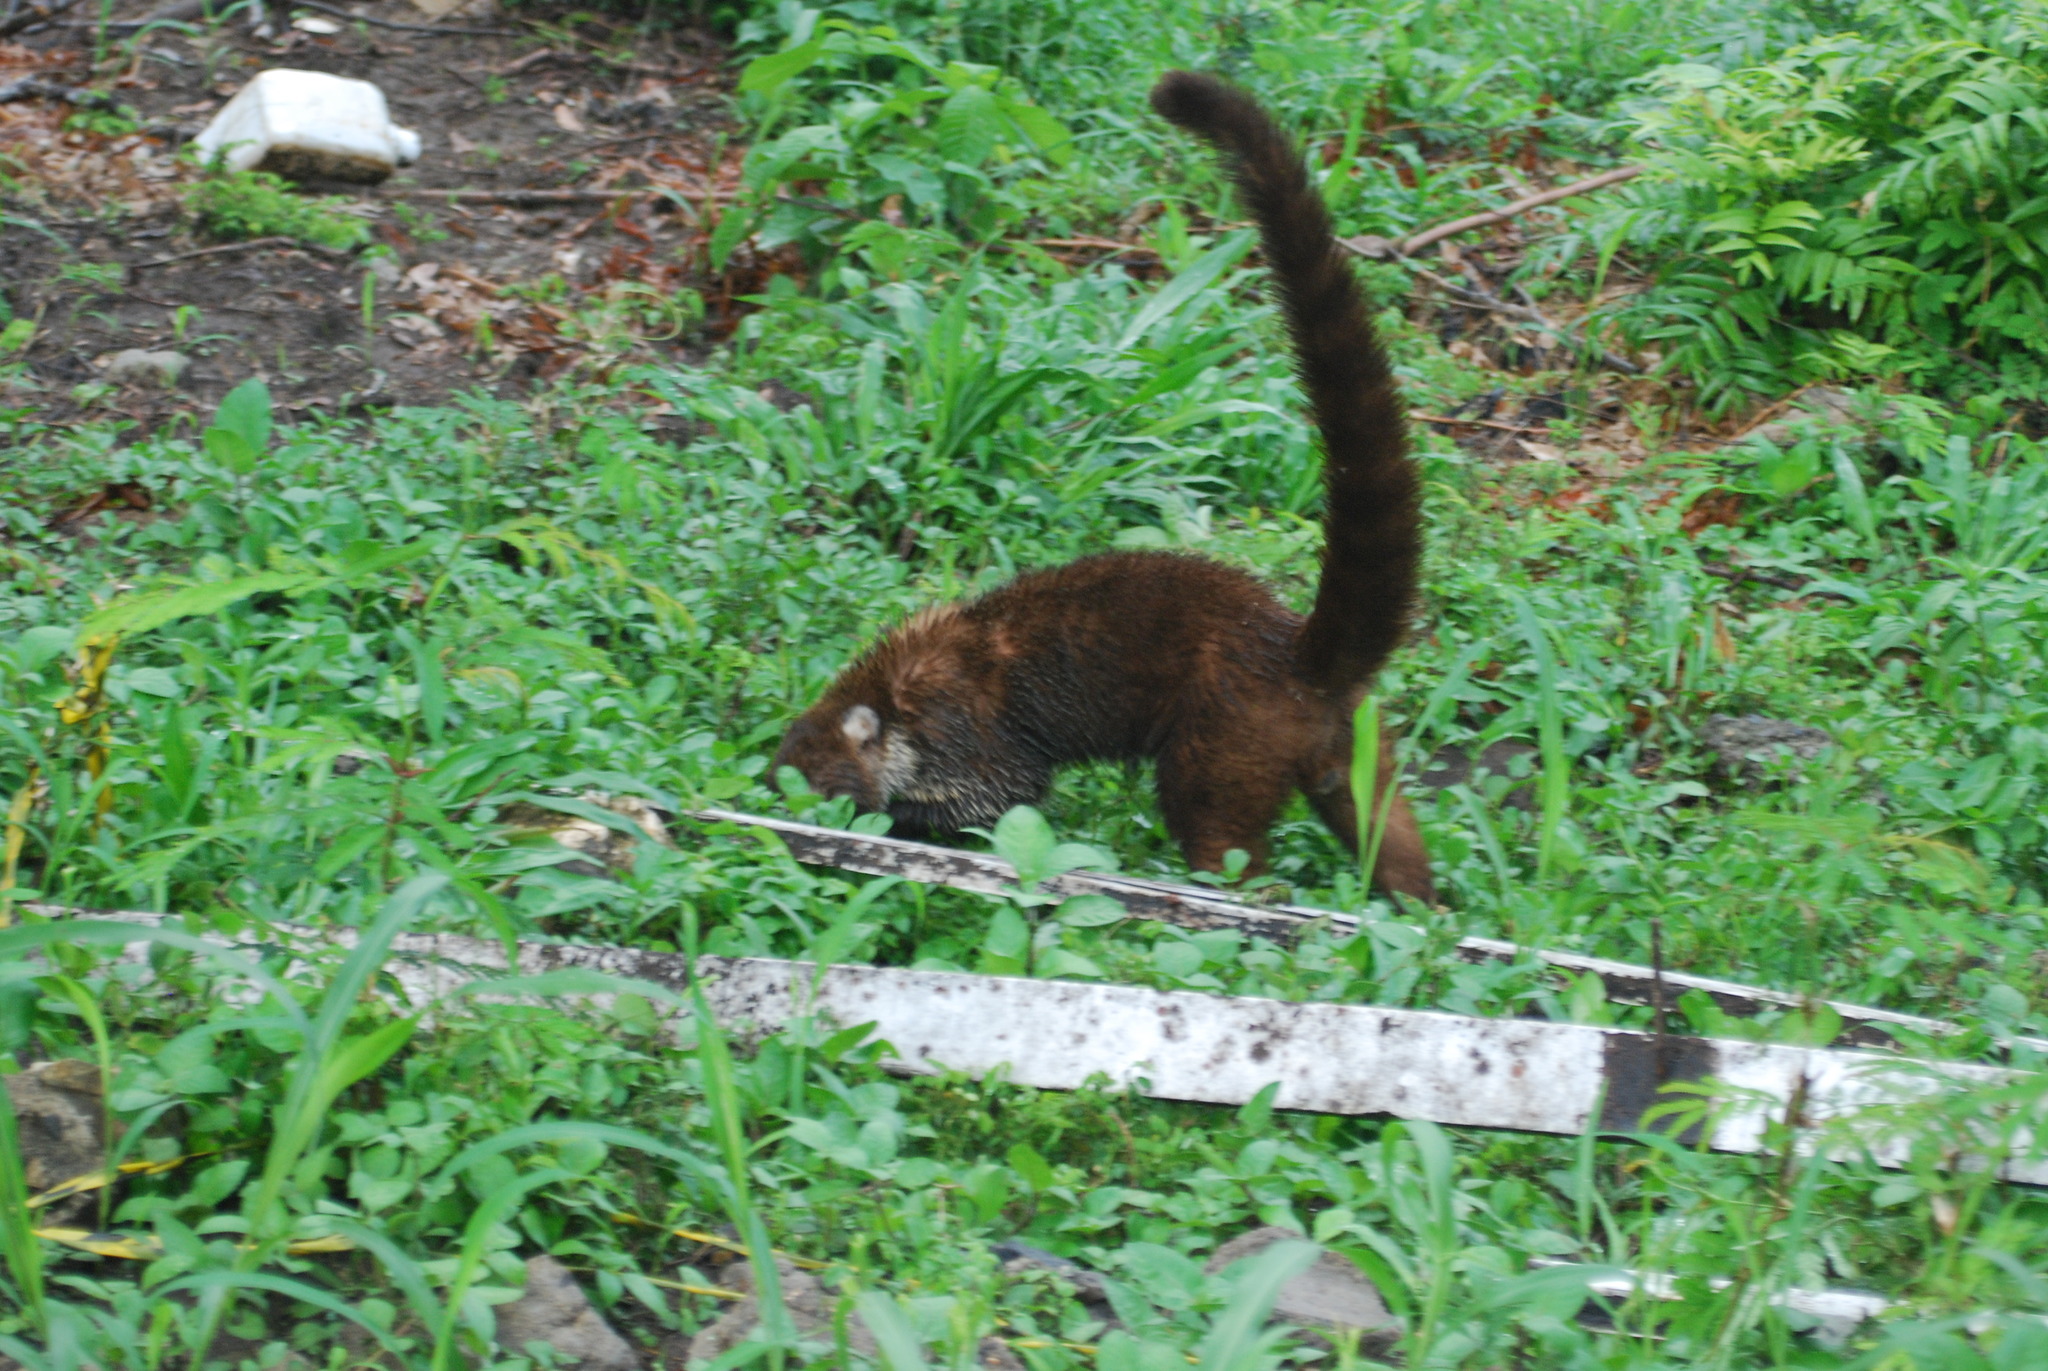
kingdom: Animalia
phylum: Chordata
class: Mammalia
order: Carnivora
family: Procyonidae
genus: Nasua
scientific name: Nasua narica
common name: White-nosed coati
